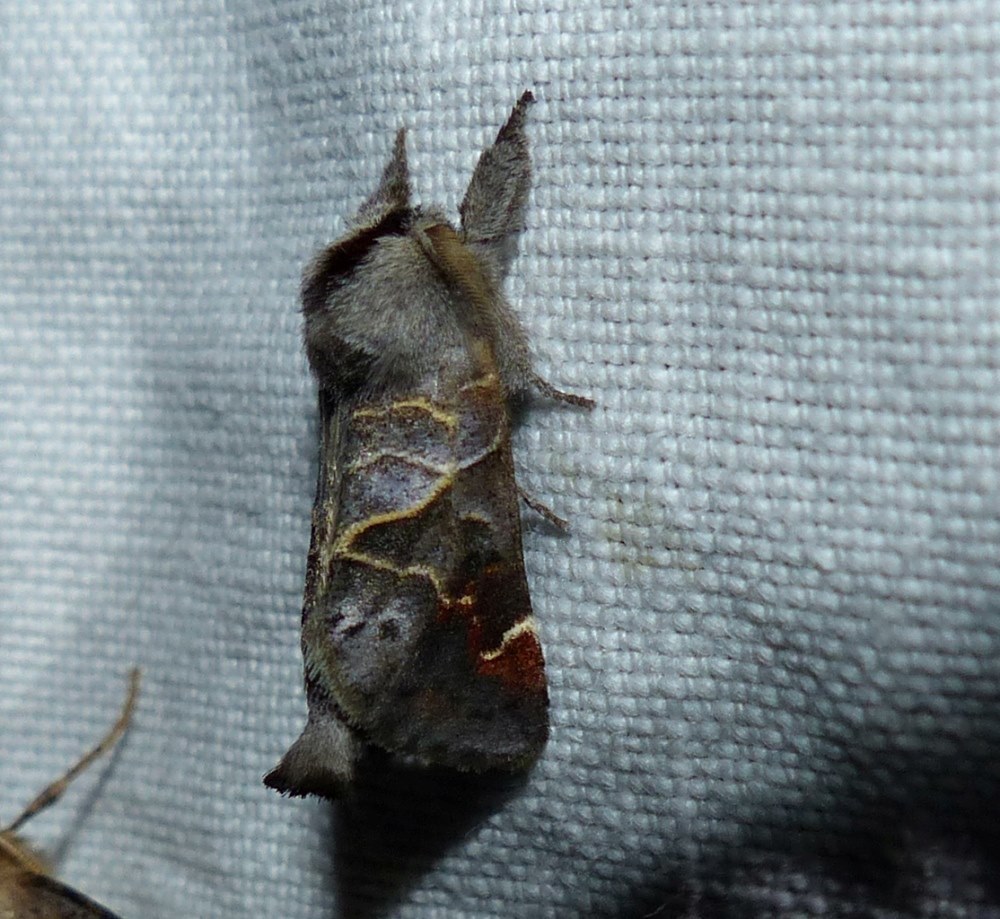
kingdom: Animalia
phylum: Arthropoda
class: Insecta
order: Lepidoptera
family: Notodontidae
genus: Clostera
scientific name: Clostera apicalis
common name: Apical prominent
